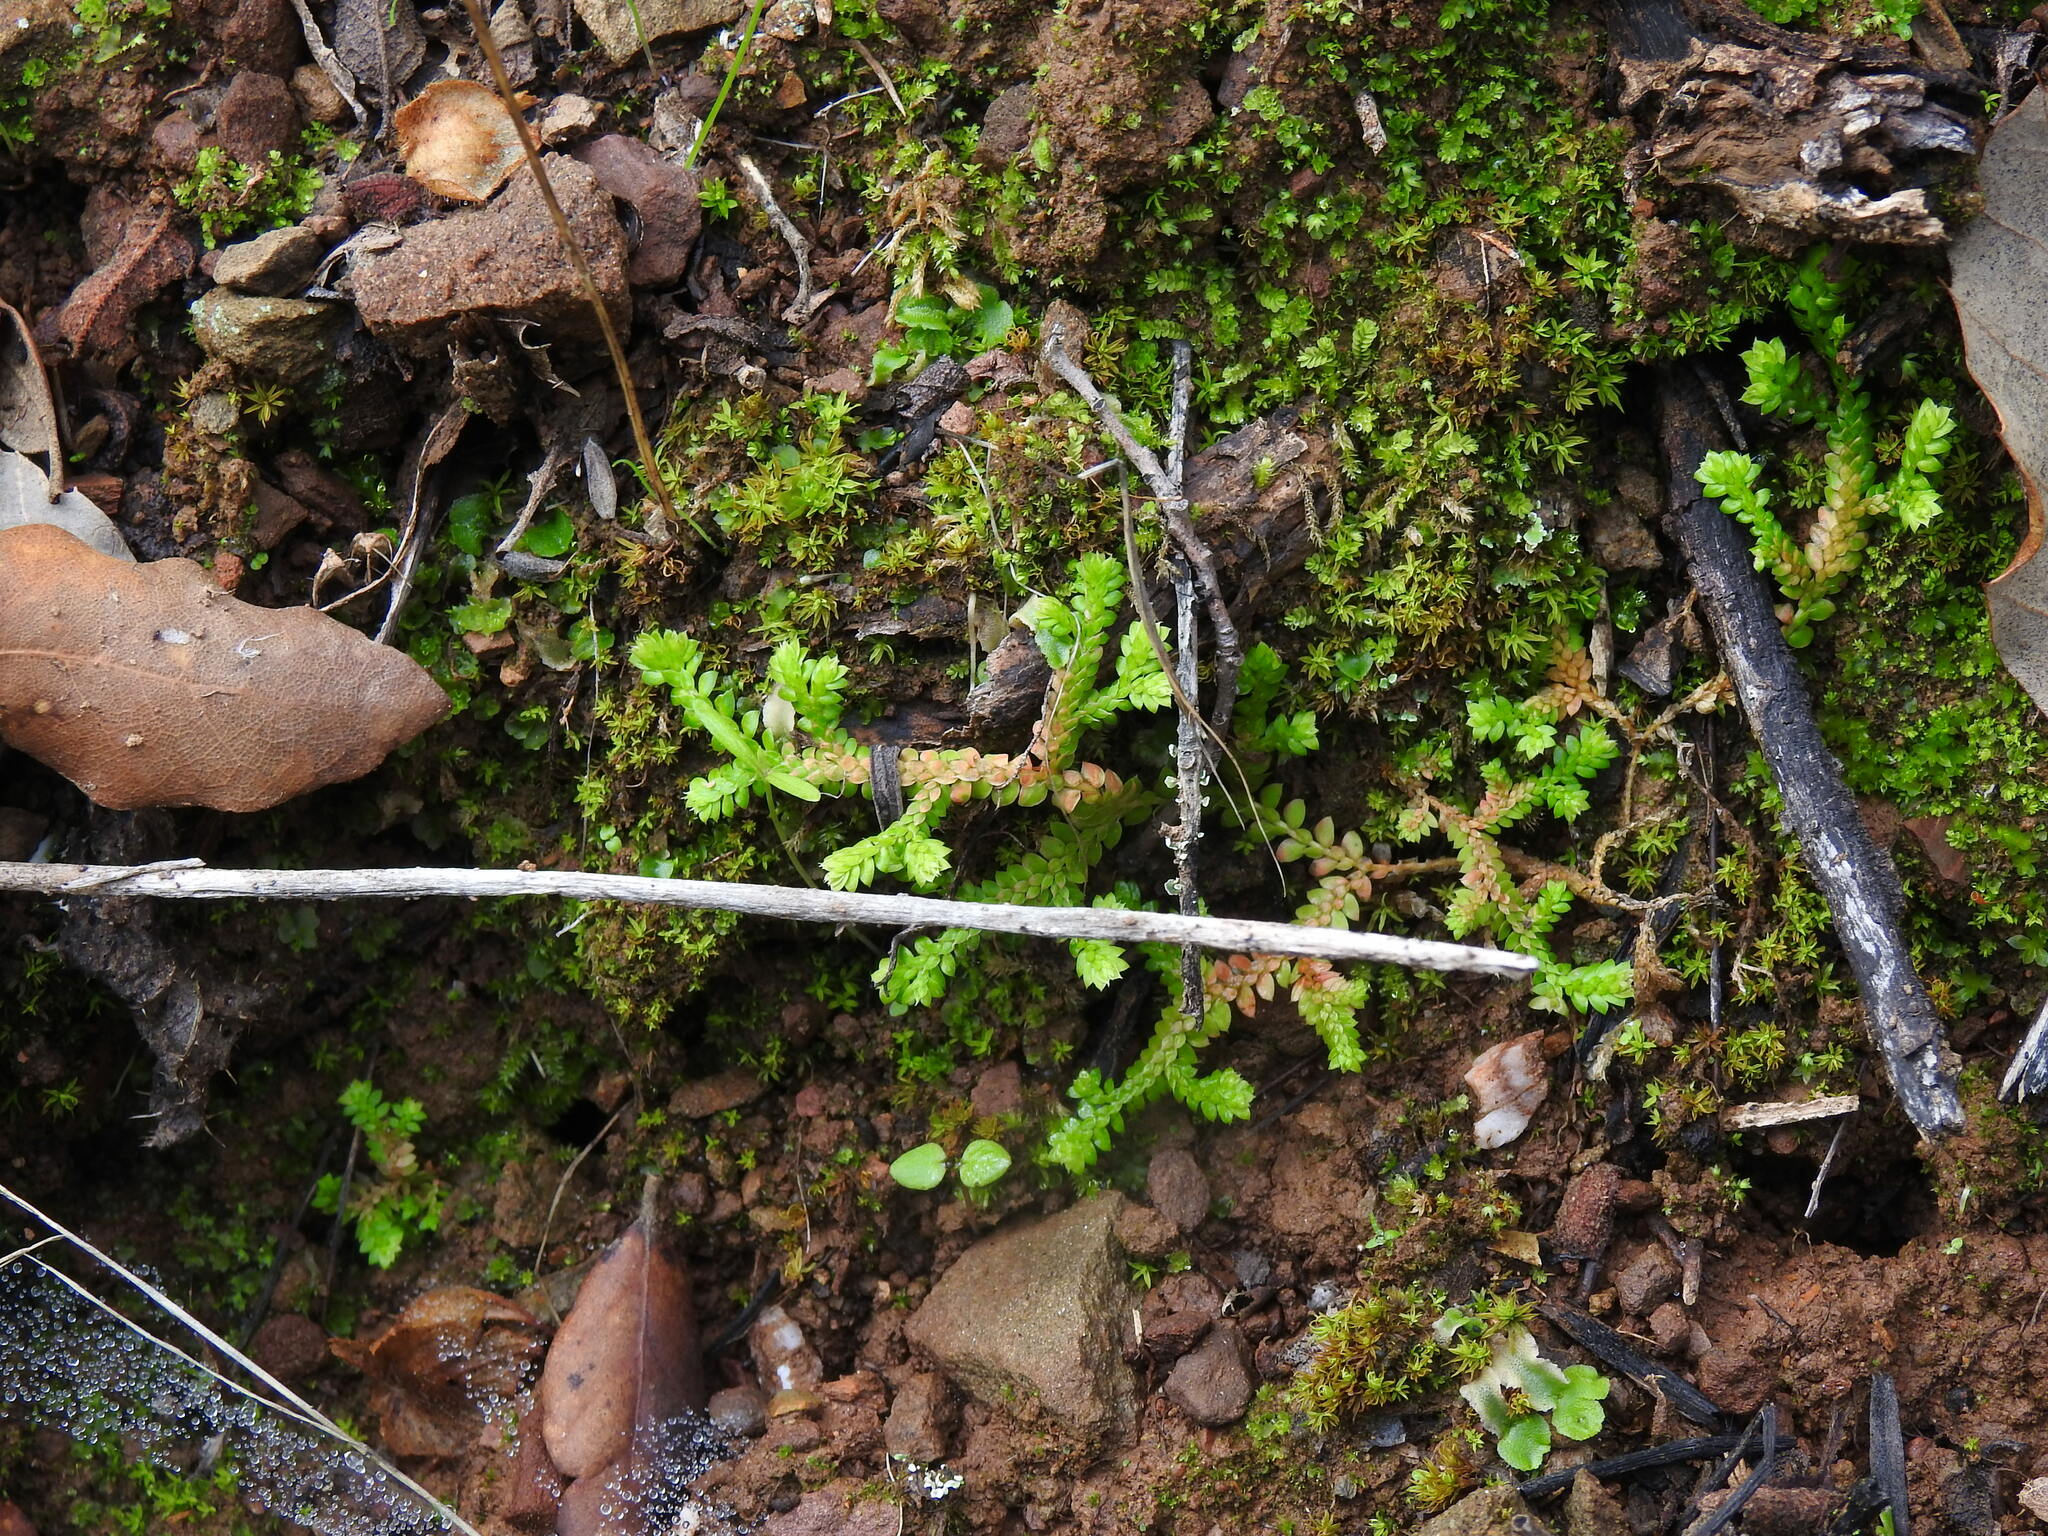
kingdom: Plantae
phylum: Tracheophyta
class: Lycopodiopsida
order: Selaginellales
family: Selaginellaceae
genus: Selaginella
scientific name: Selaginella denticulata
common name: Toothed-leaved clubmoss
